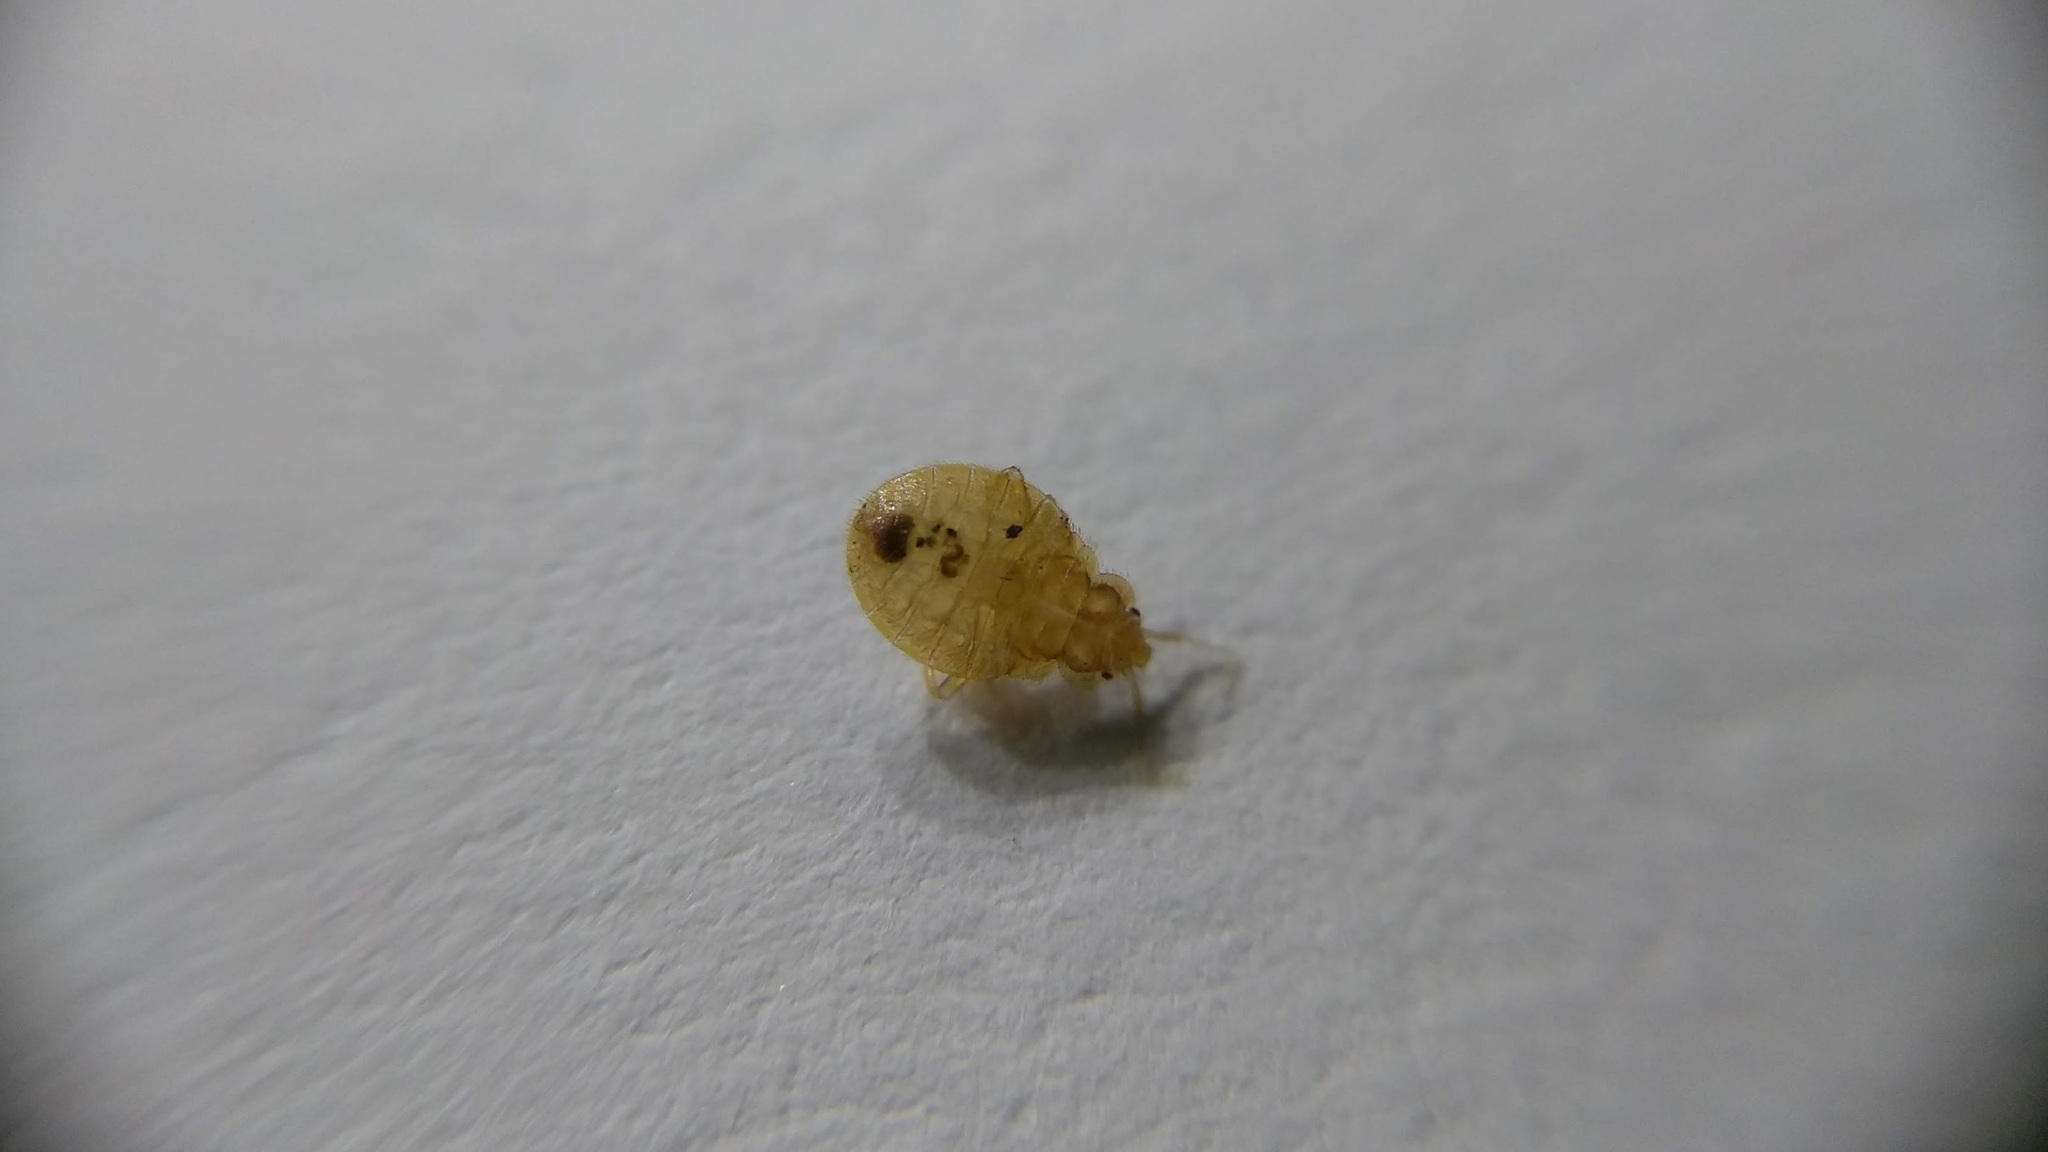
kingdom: Animalia
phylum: Arthropoda
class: Insecta
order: Hemiptera
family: Cimicidae
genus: Cimex
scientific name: Cimex lectularius
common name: Bed bug
